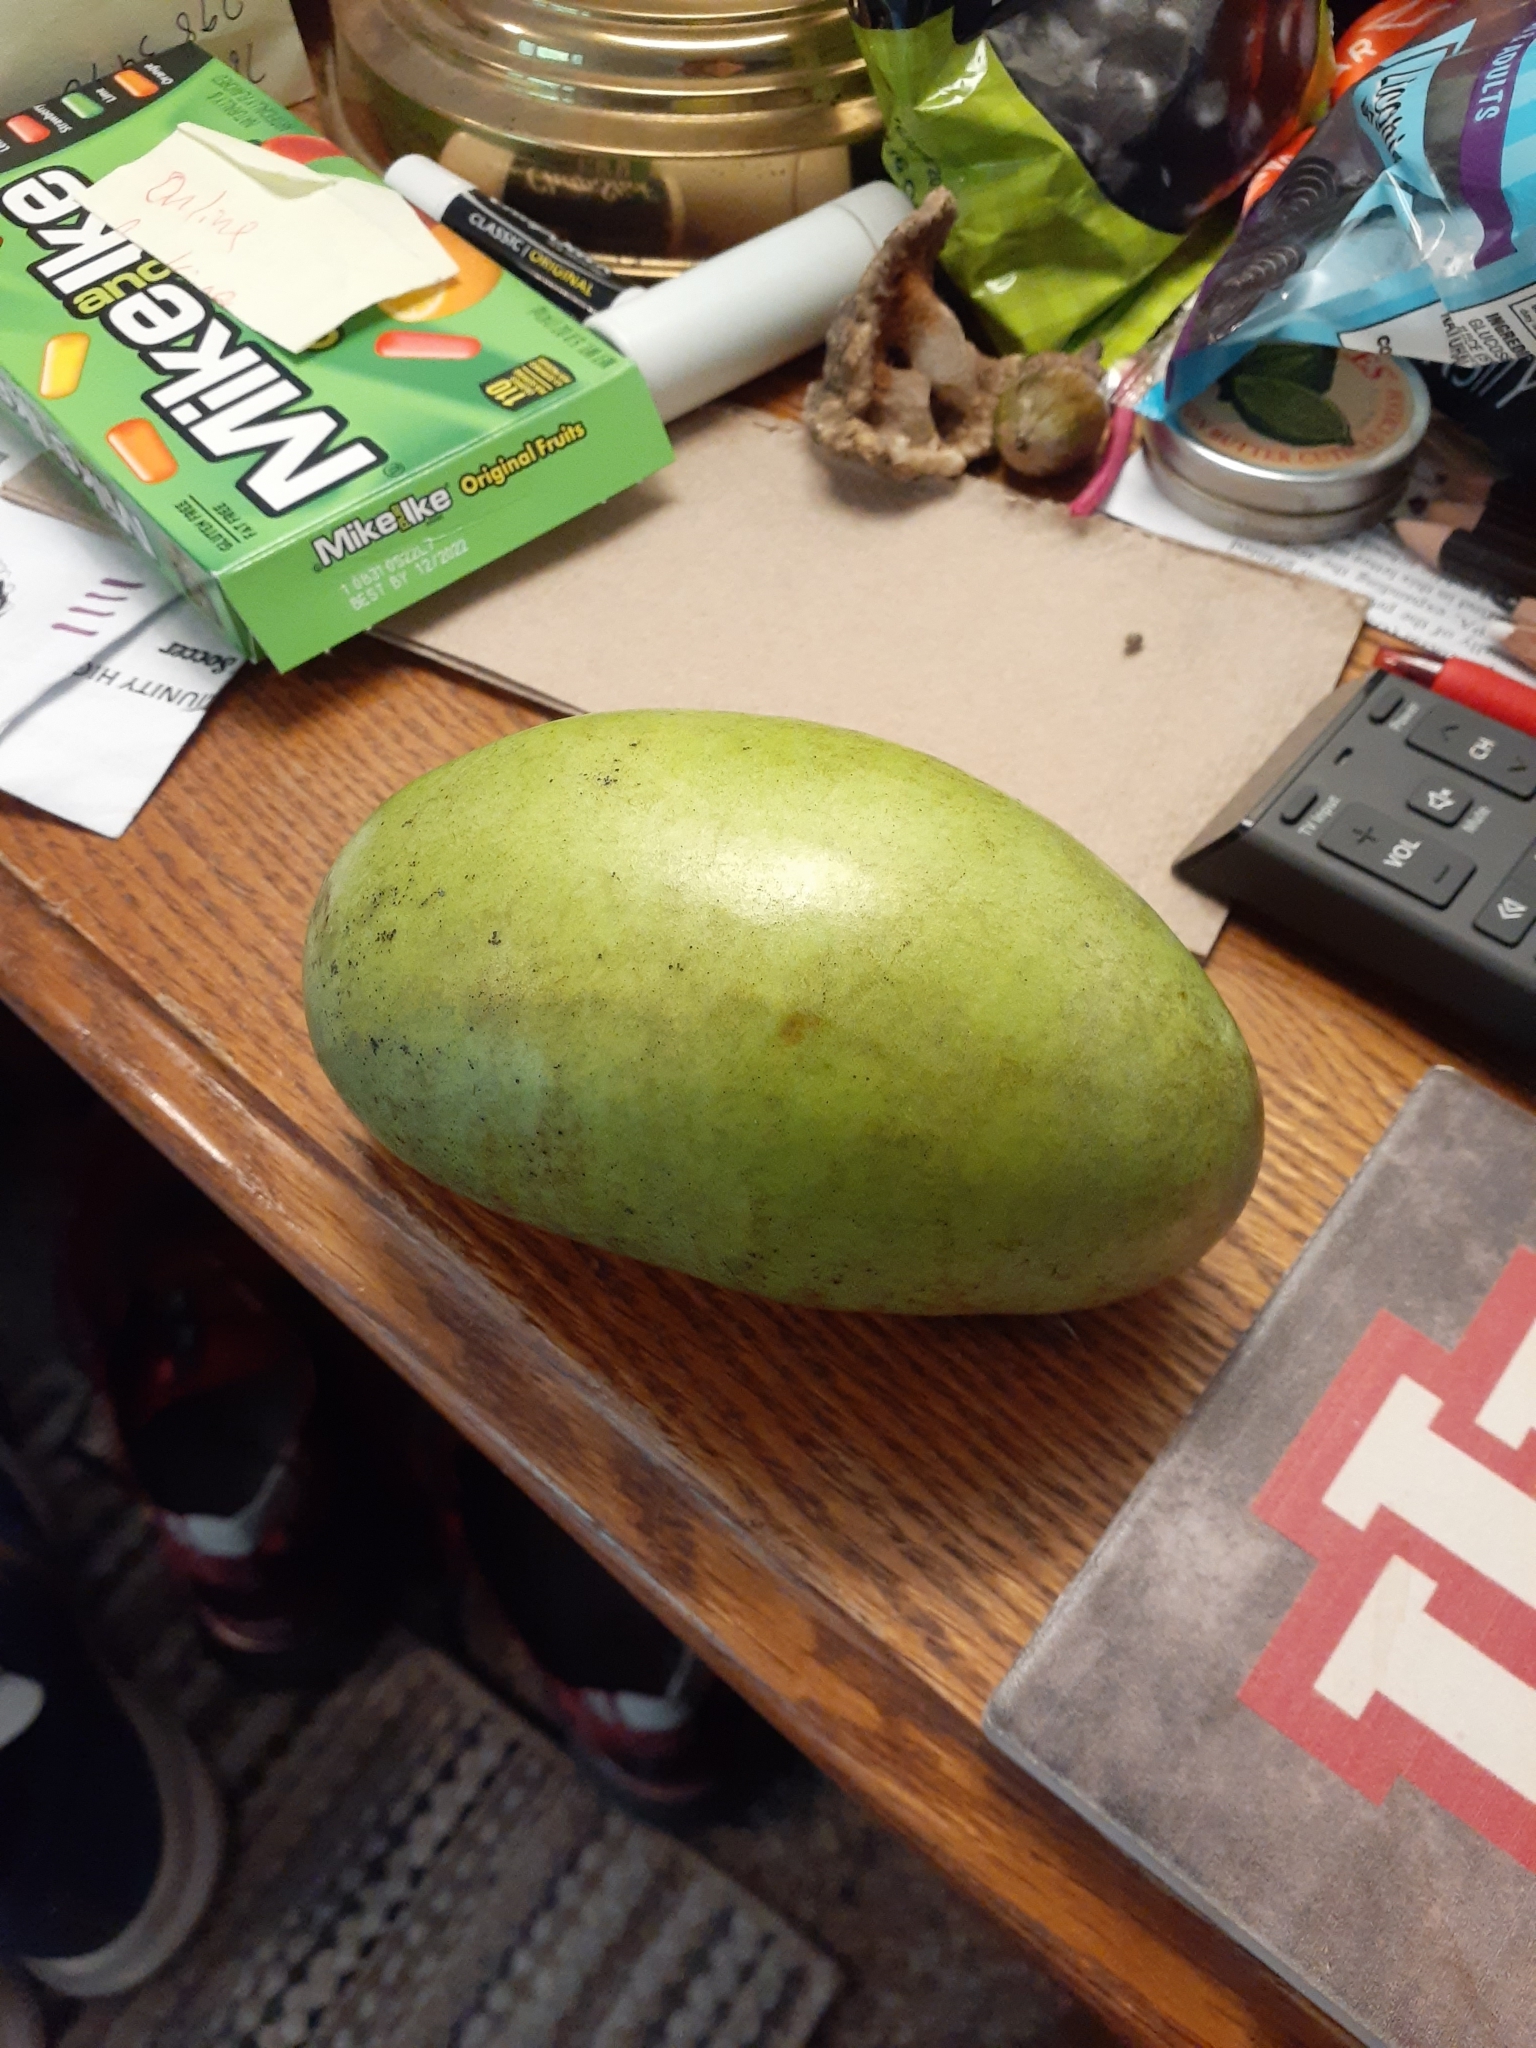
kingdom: Plantae
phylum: Tracheophyta
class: Magnoliopsida
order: Magnoliales
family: Annonaceae
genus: Asimina
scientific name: Asimina triloba
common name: Dog-banana
